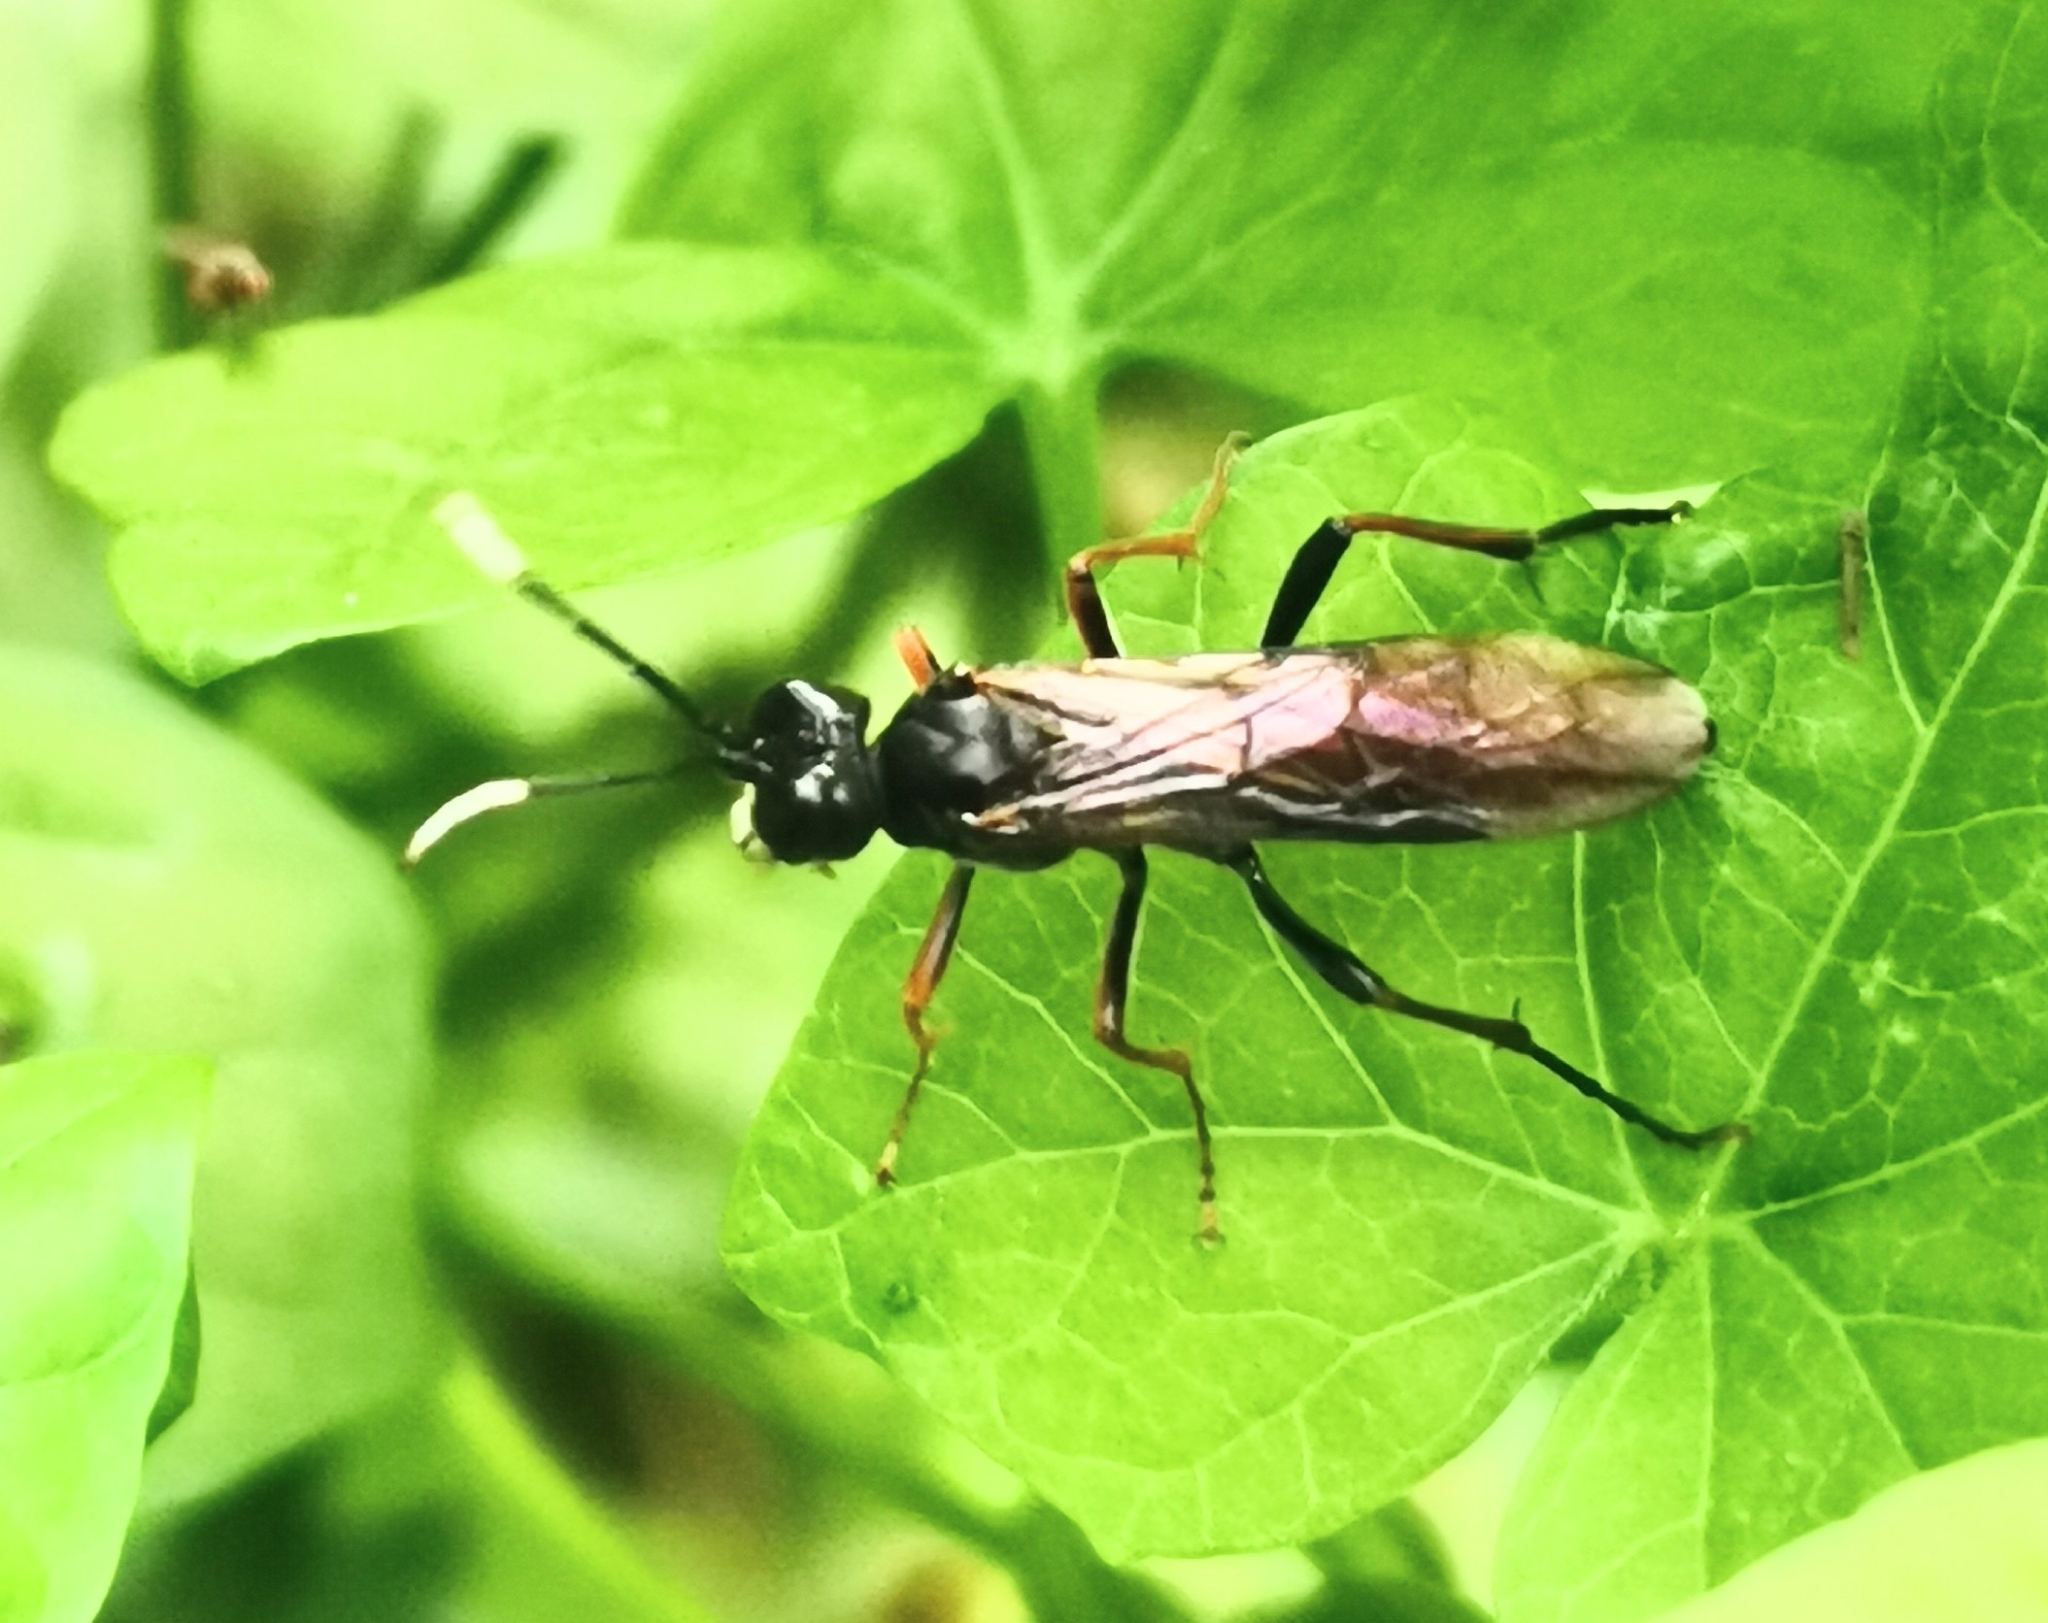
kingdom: Animalia
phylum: Arthropoda
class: Insecta
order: Hymenoptera
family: Tenthredinidae
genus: Tenthredo
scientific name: Tenthredo colon
